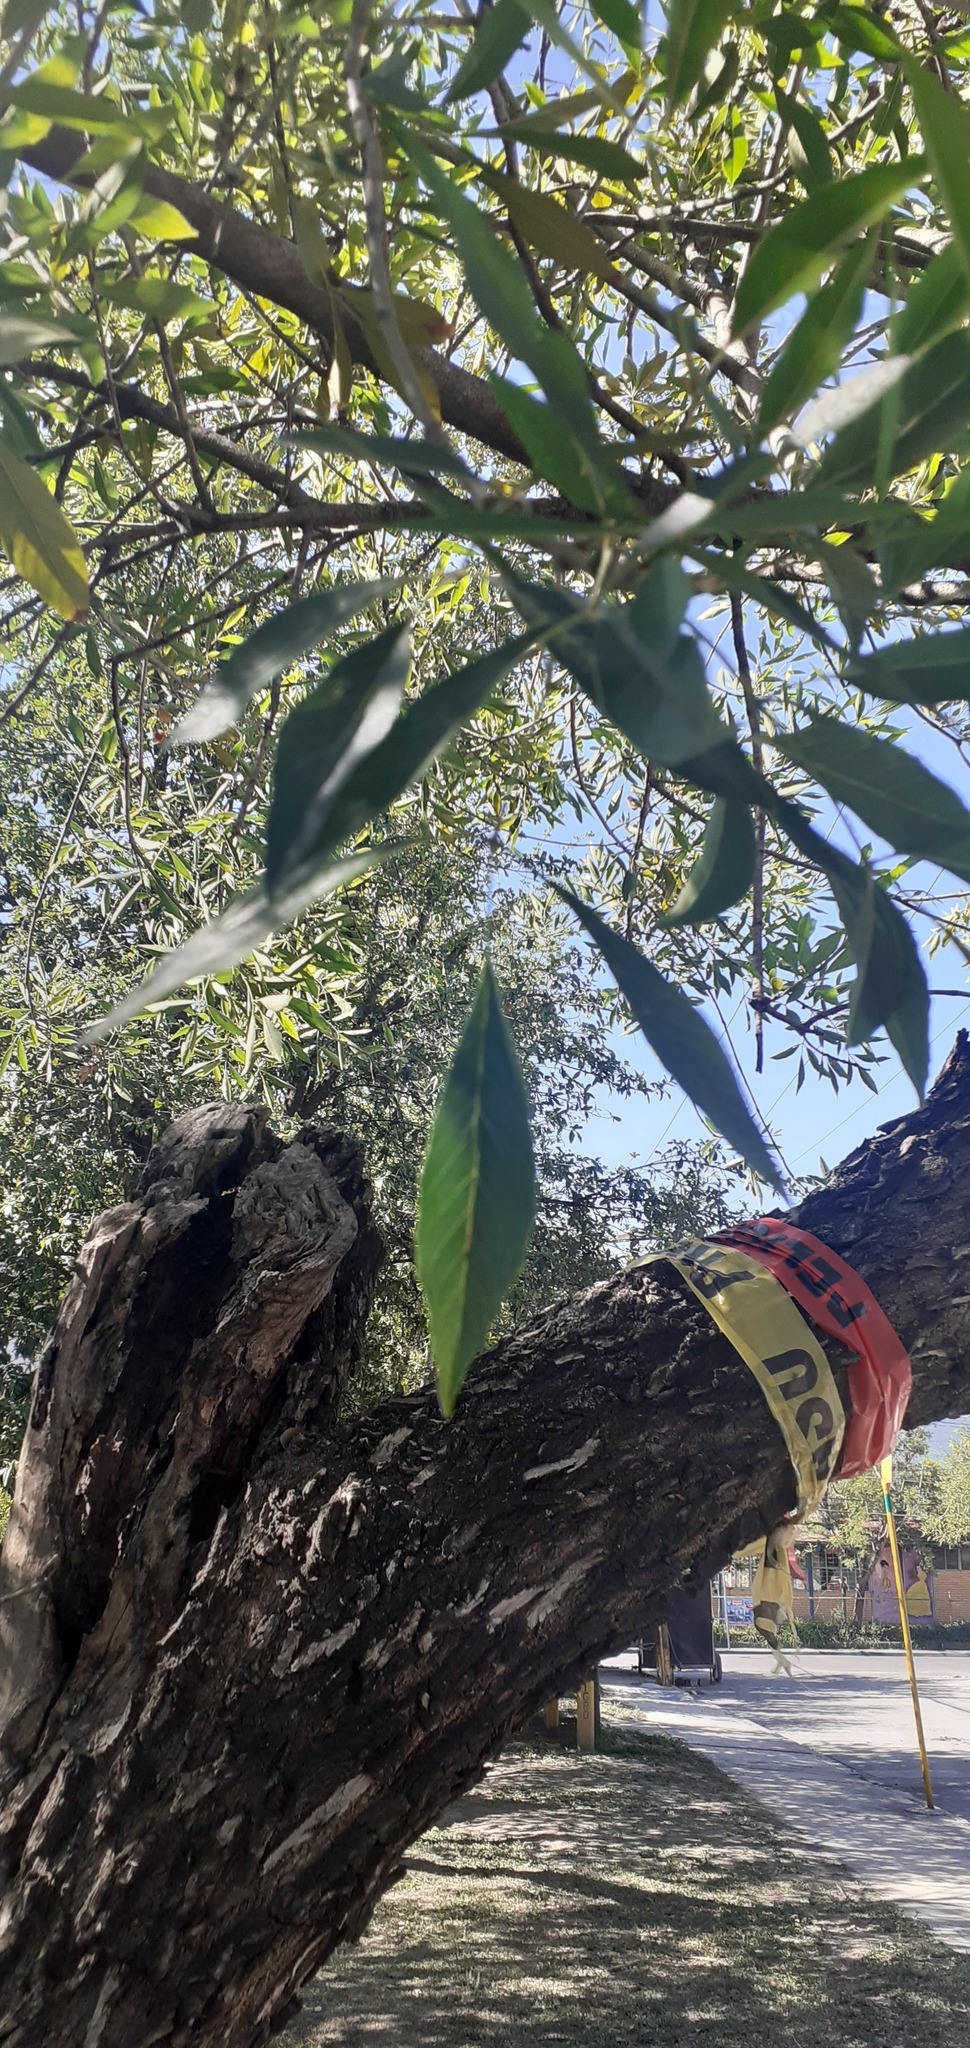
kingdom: Plantae
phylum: Tracheophyta
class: Magnoliopsida
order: Lamiales
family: Oleaceae
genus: Fraxinus
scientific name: Fraxinus berlandieriana
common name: Berlandier ash
